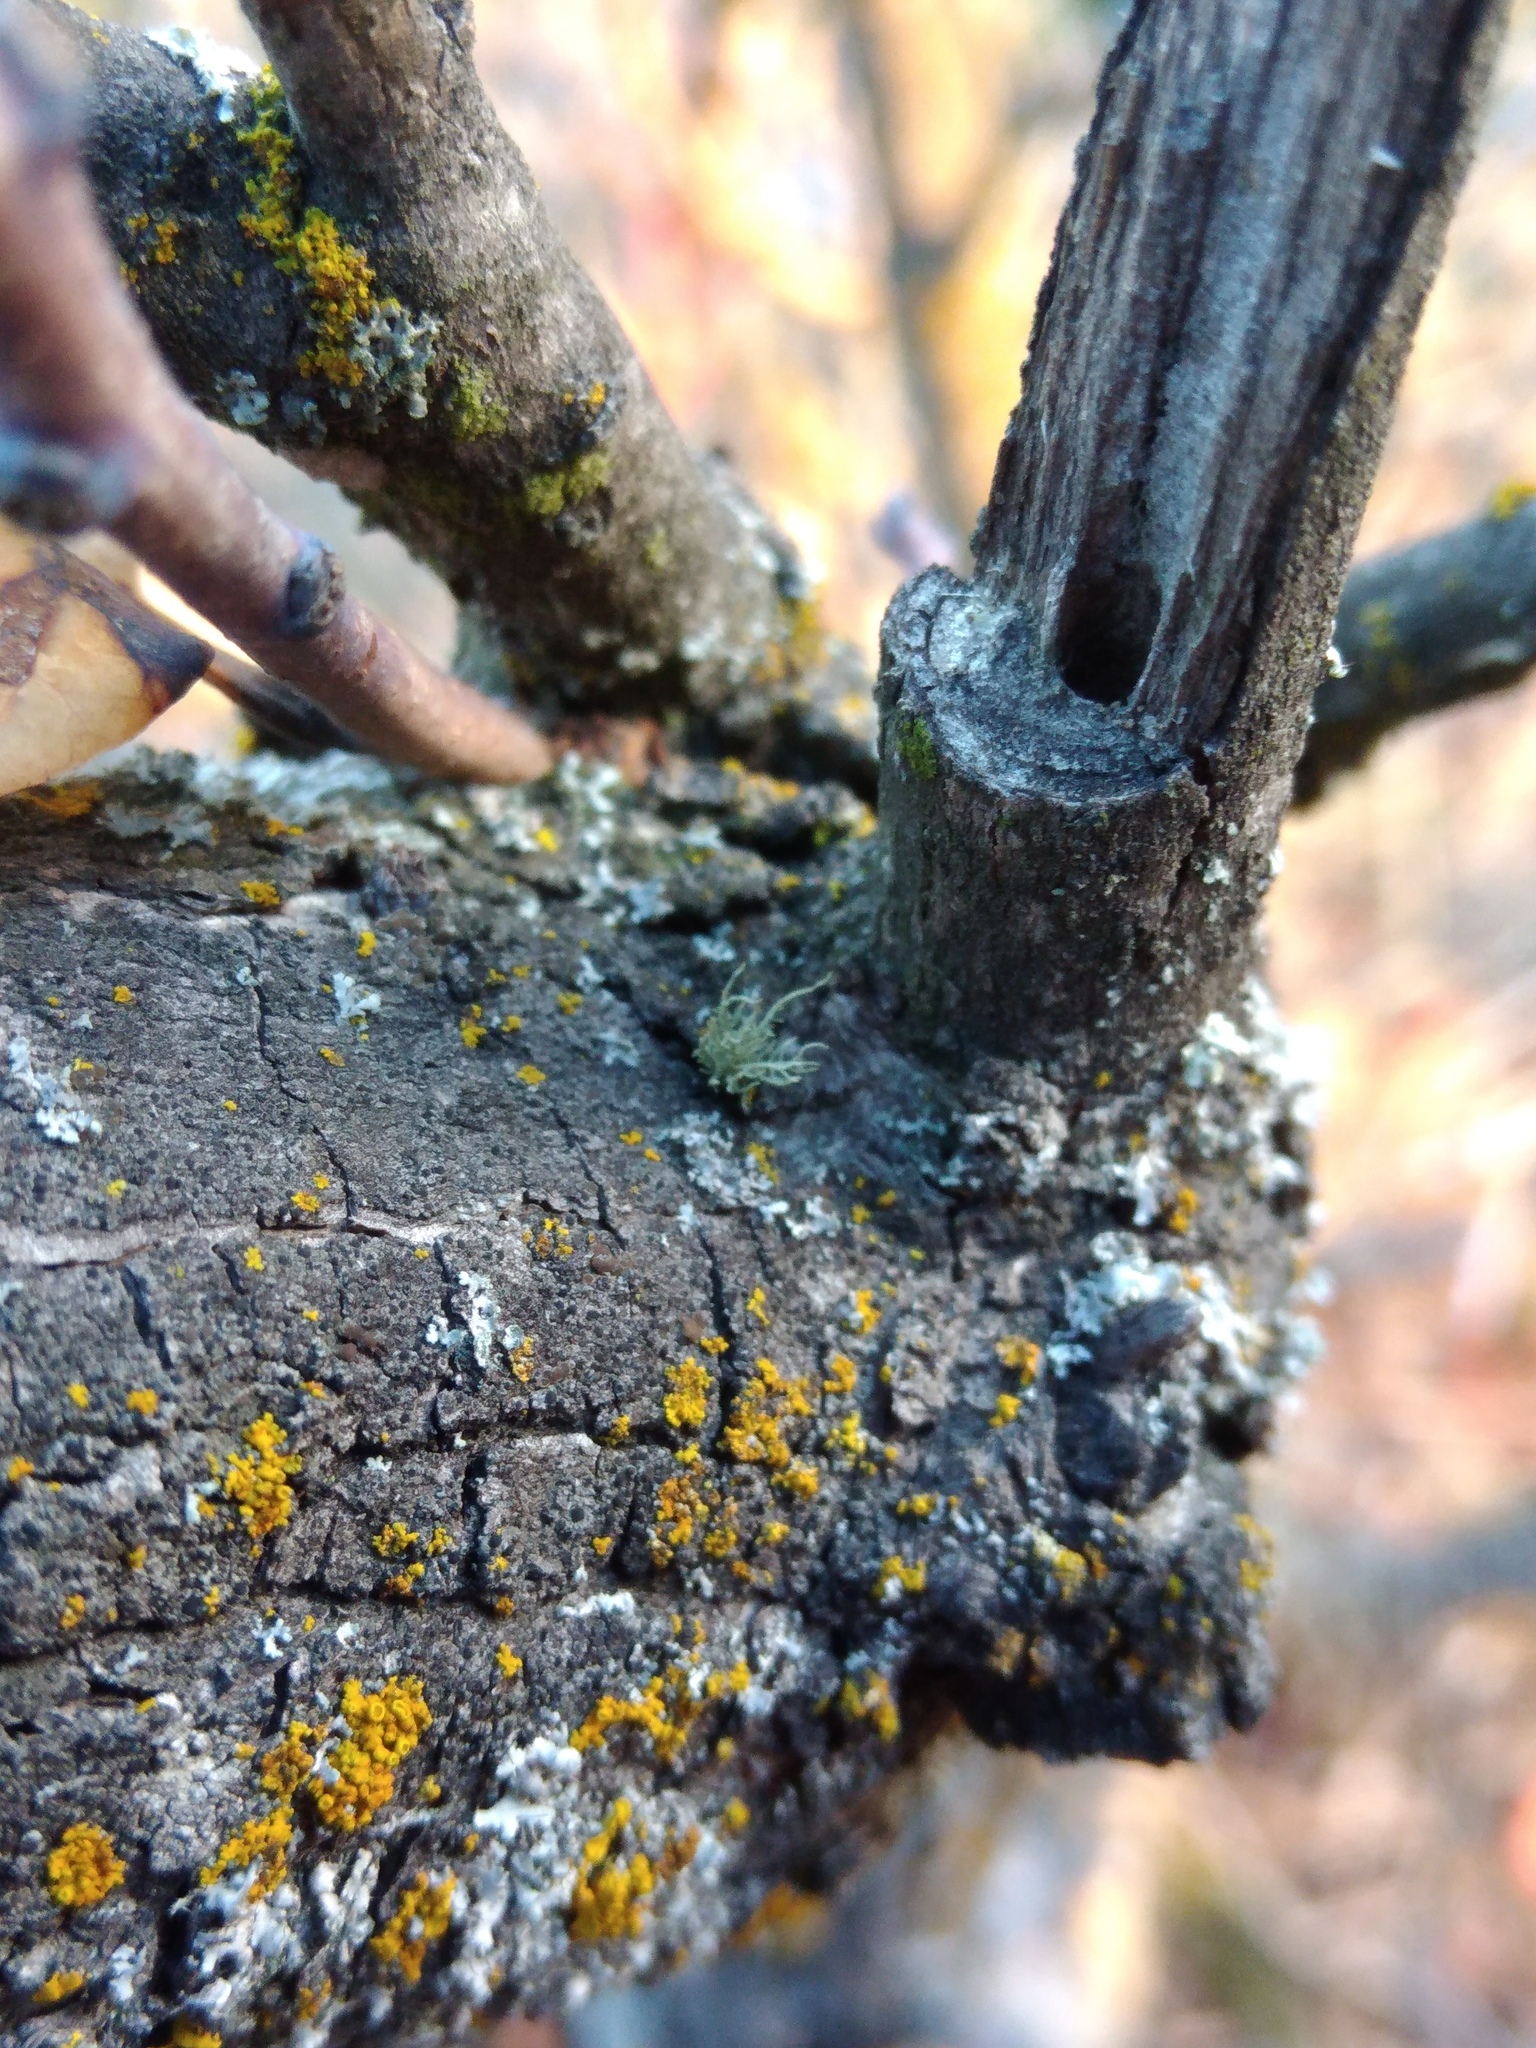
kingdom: Fungi
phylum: Ascomycota
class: Lecanoromycetes
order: Lecanorales
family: Parmeliaceae
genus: Usnea
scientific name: Usnea hirta
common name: Bristly beard lichen
